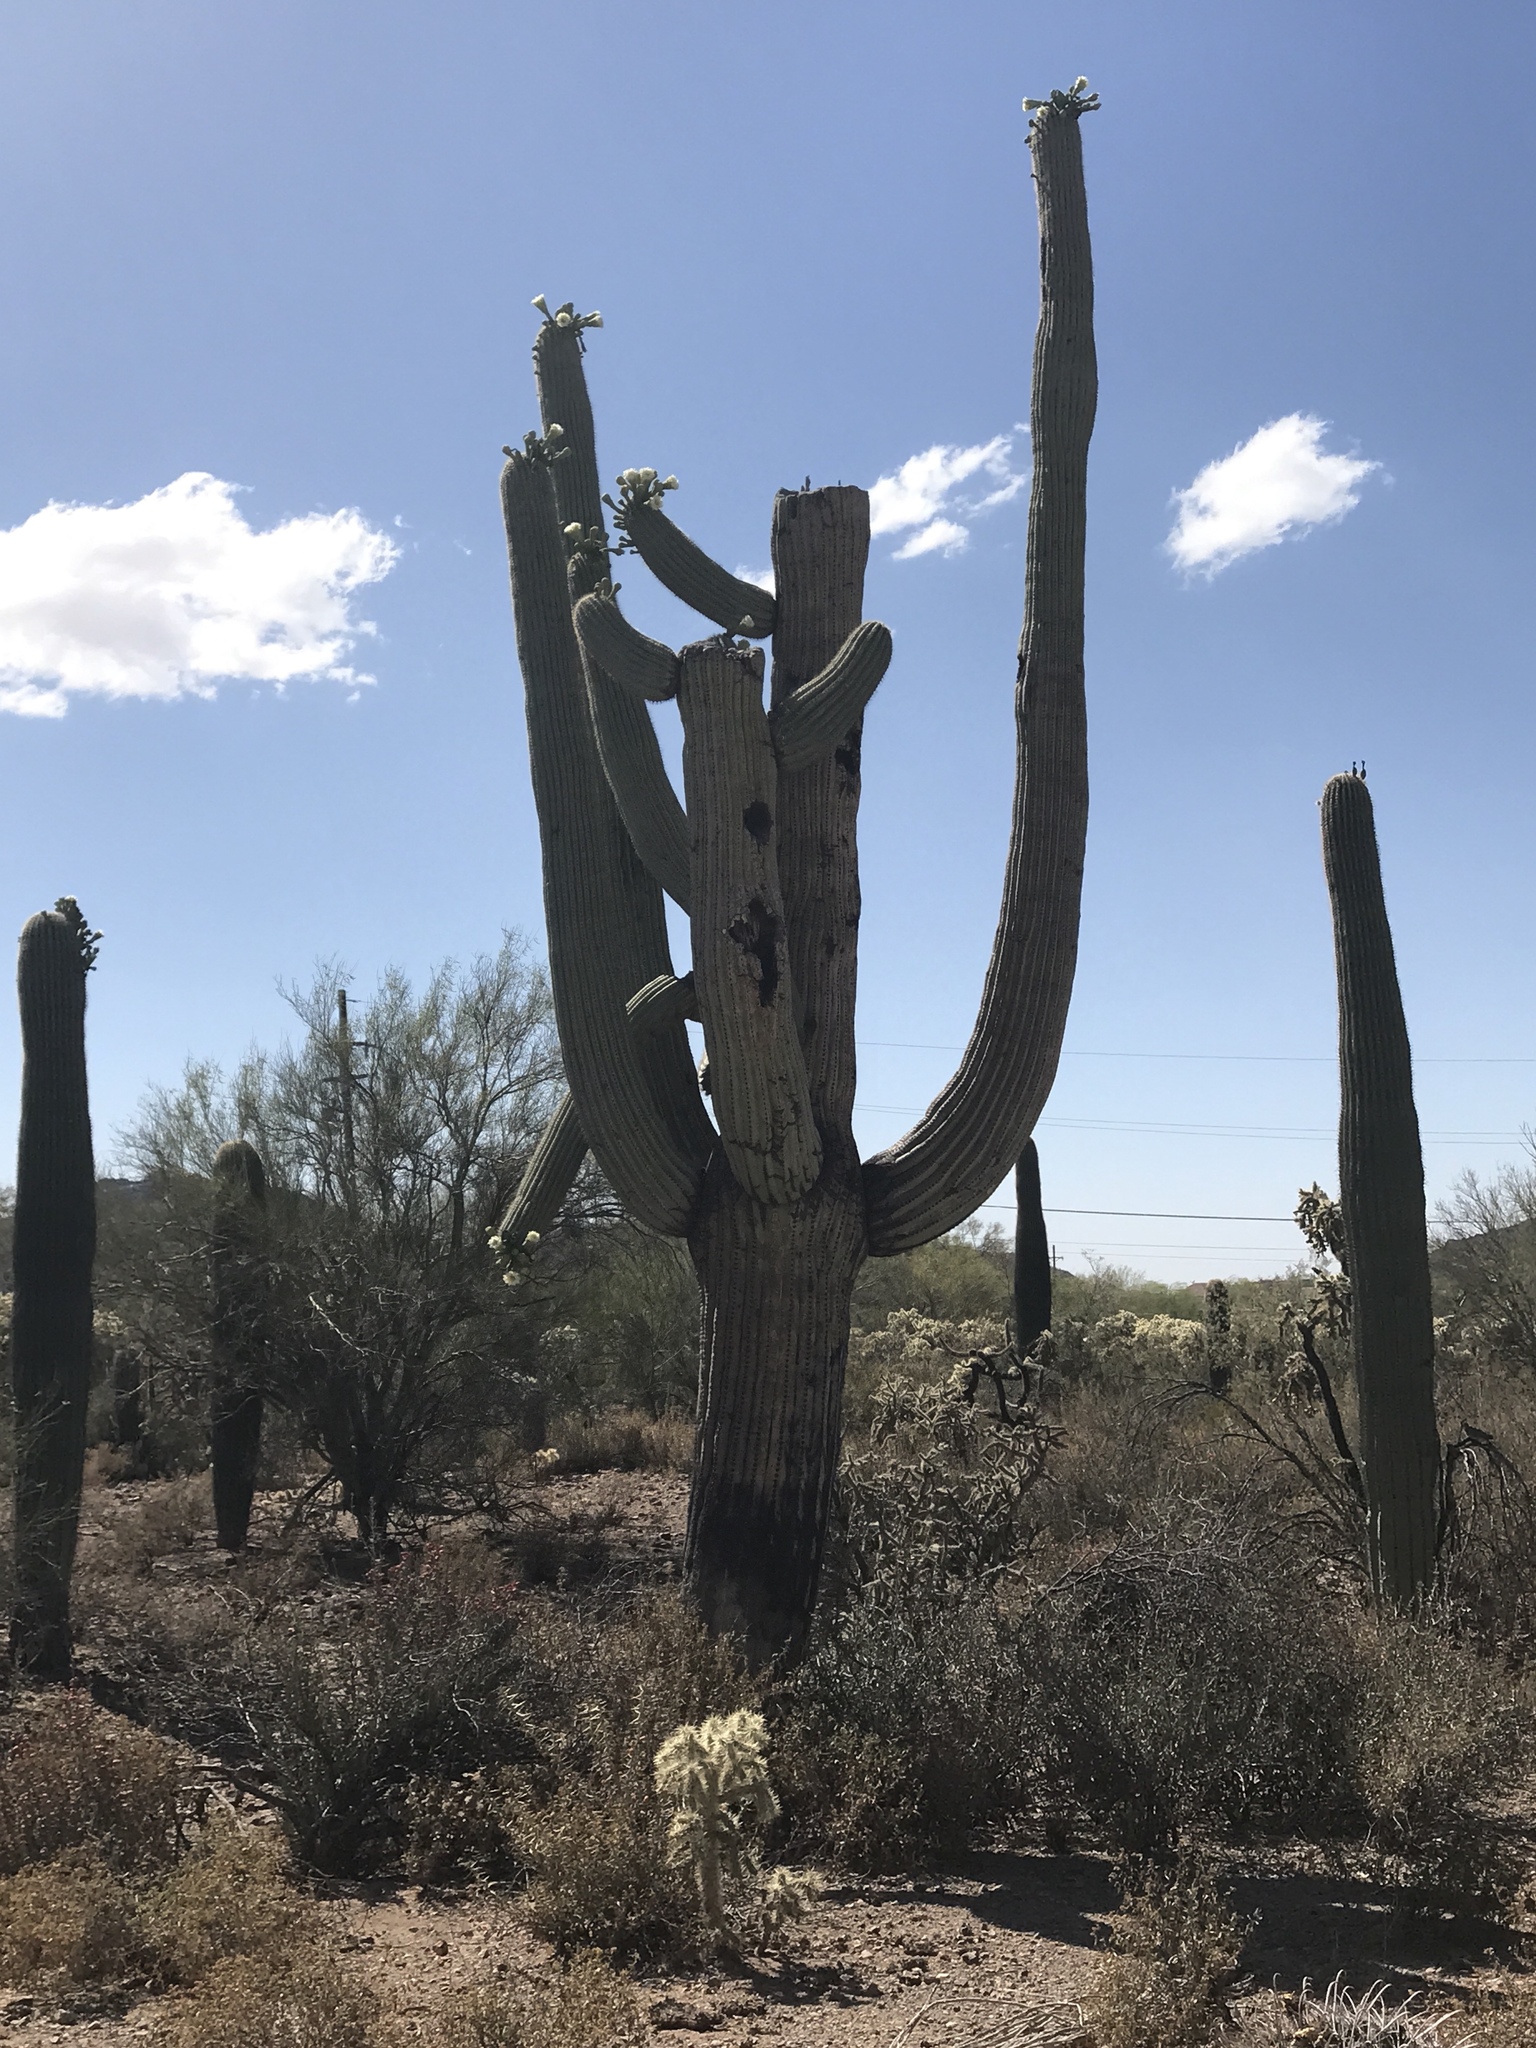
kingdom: Plantae
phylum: Tracheophyta
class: Magnoliopsida
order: Caryophyllales
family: Cactaceae
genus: Carnegiea
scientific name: Carnegiea gigantea
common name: Saguaro
